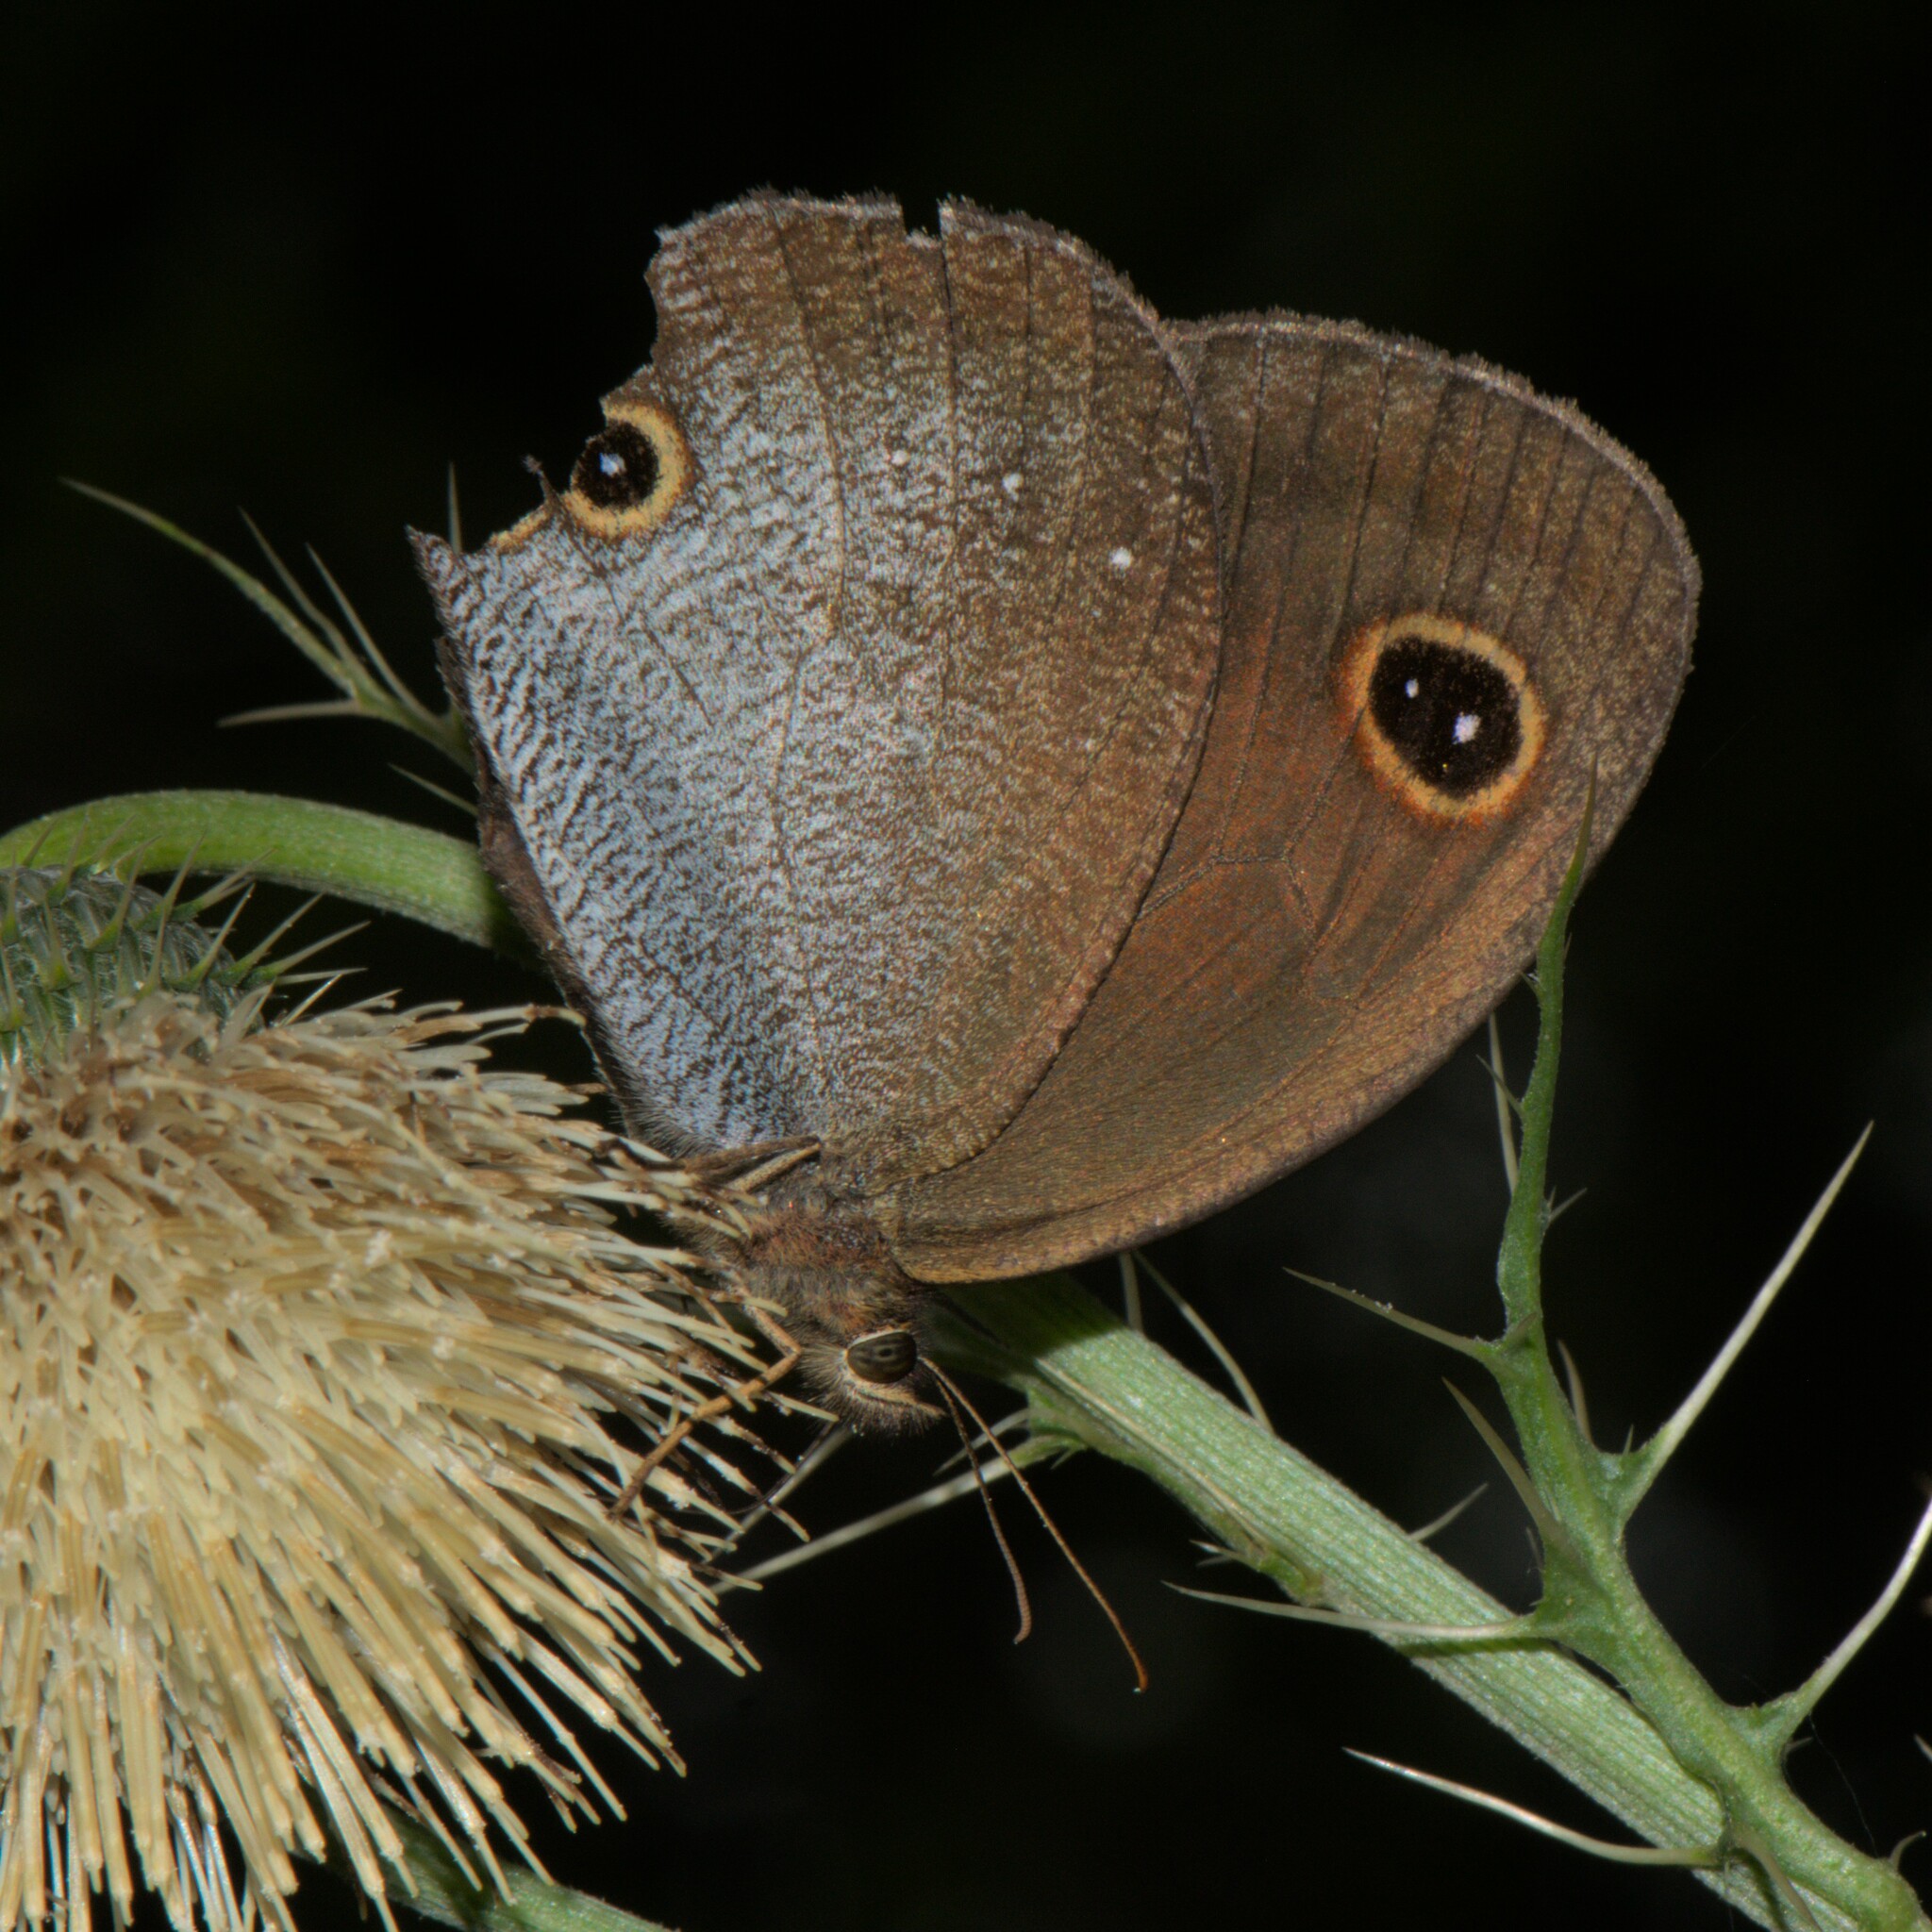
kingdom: Animalia
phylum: Arthropoda
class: Insecta
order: Lepidoptera
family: Nymphalidae
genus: Callerebia
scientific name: Callerebia scanda
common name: Pallid argus
